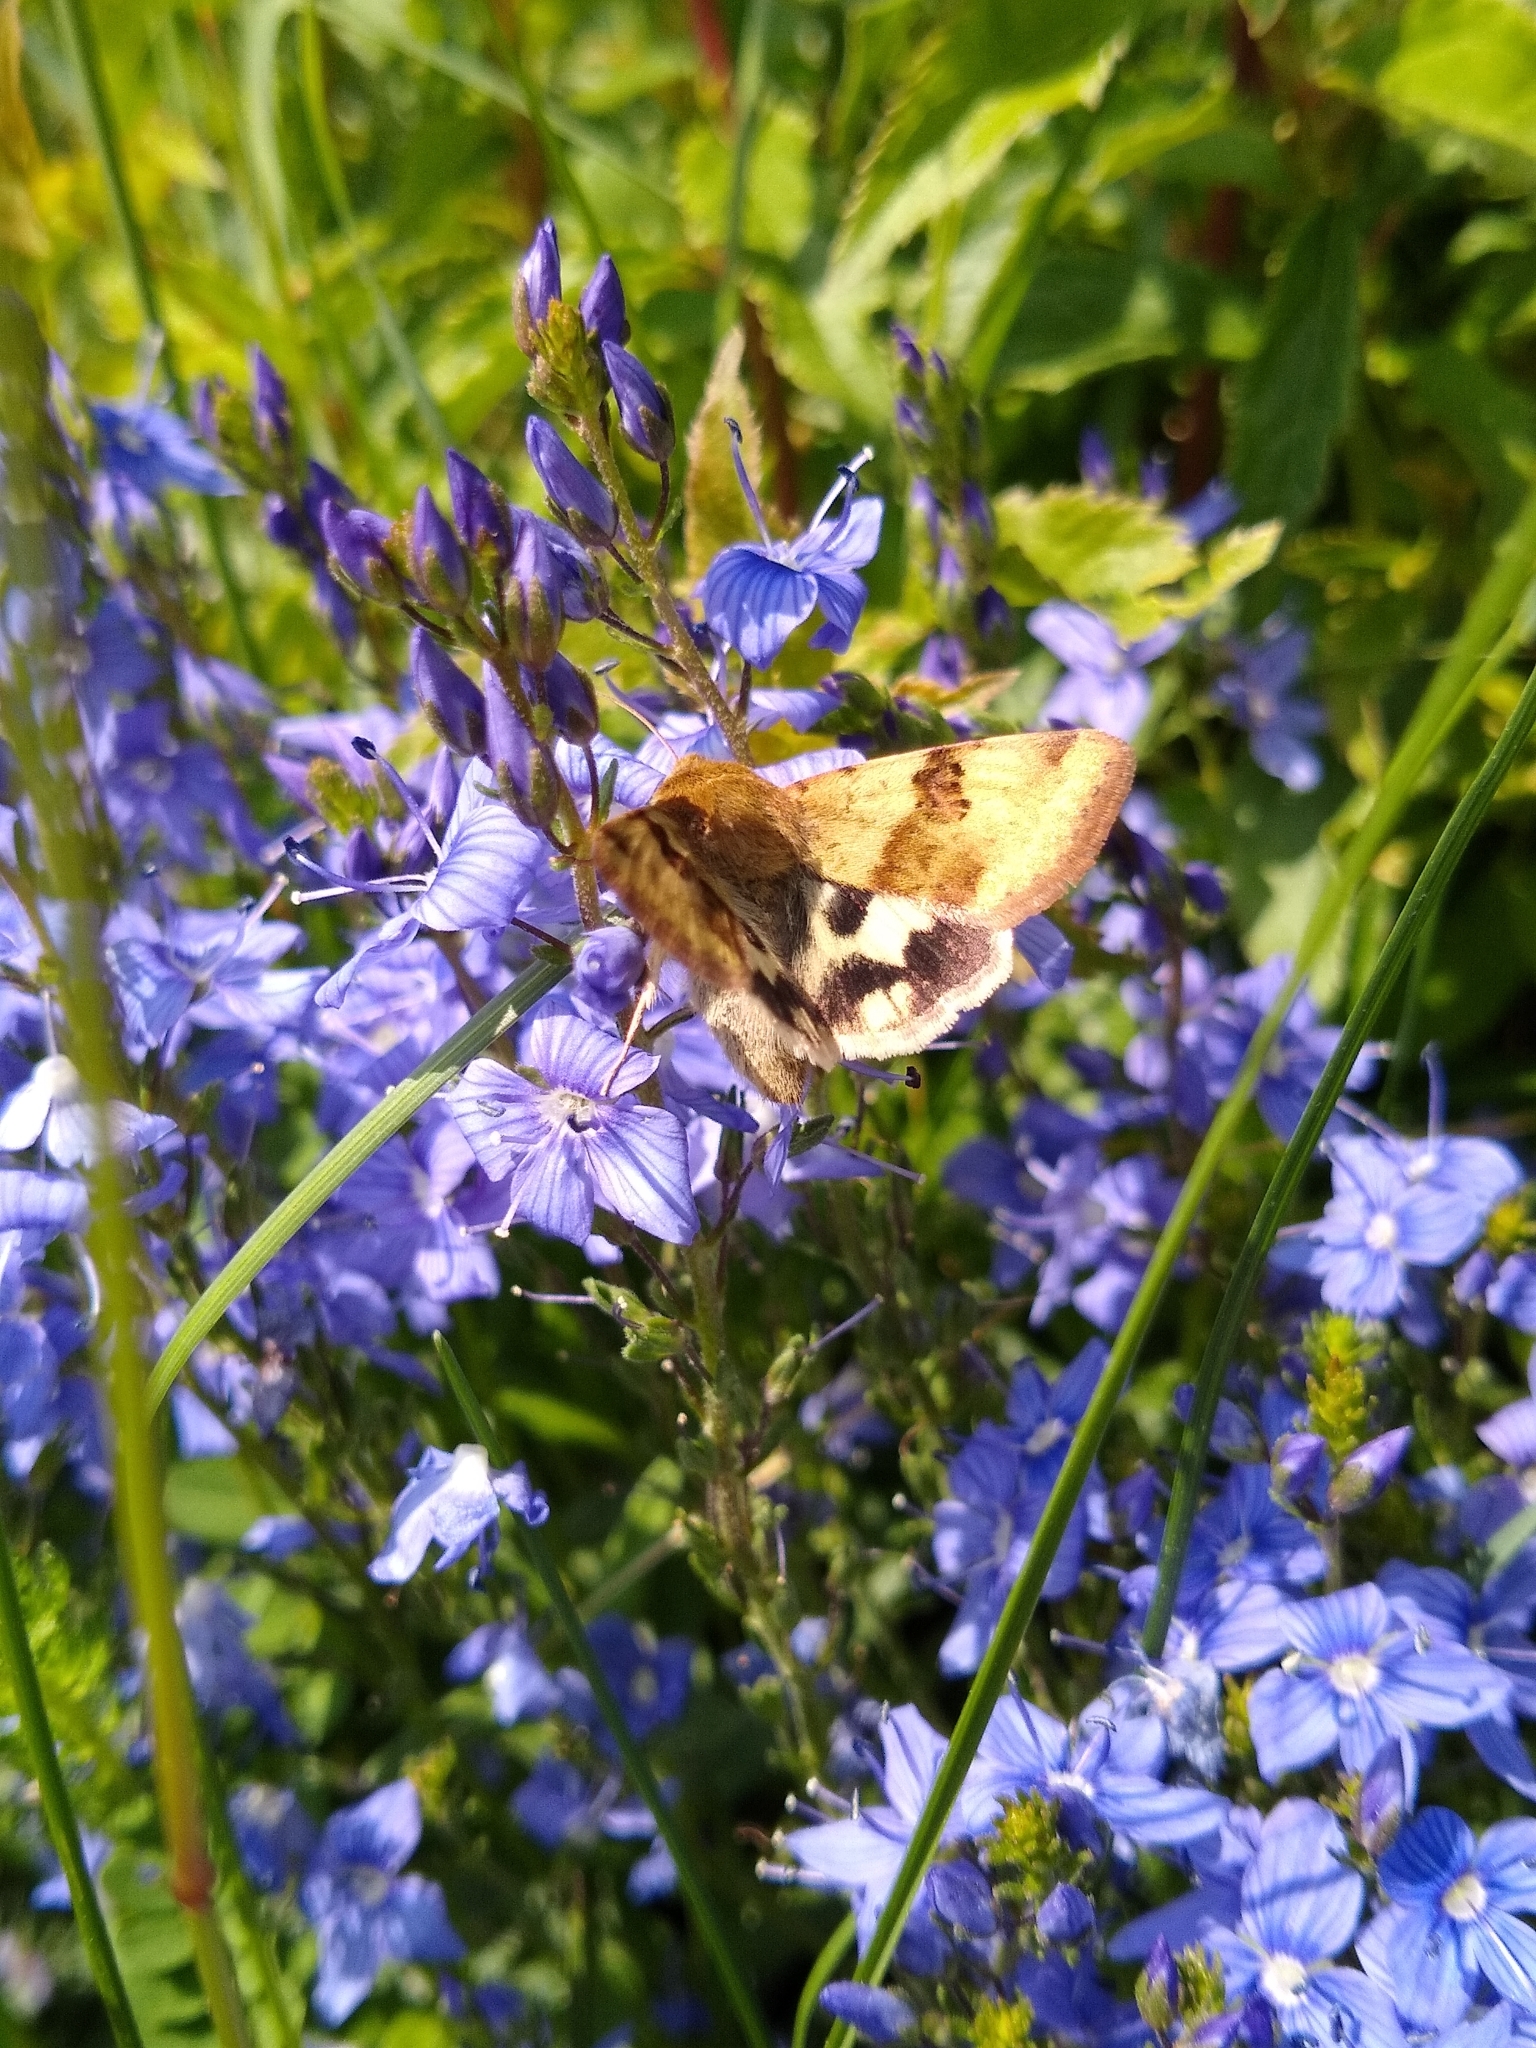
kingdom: Animalia
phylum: Arthropoda
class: Insecta
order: Lepidoptera
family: Noctuidae
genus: Heliothis
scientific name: Heliothis viriplaca
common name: Marbled clover
